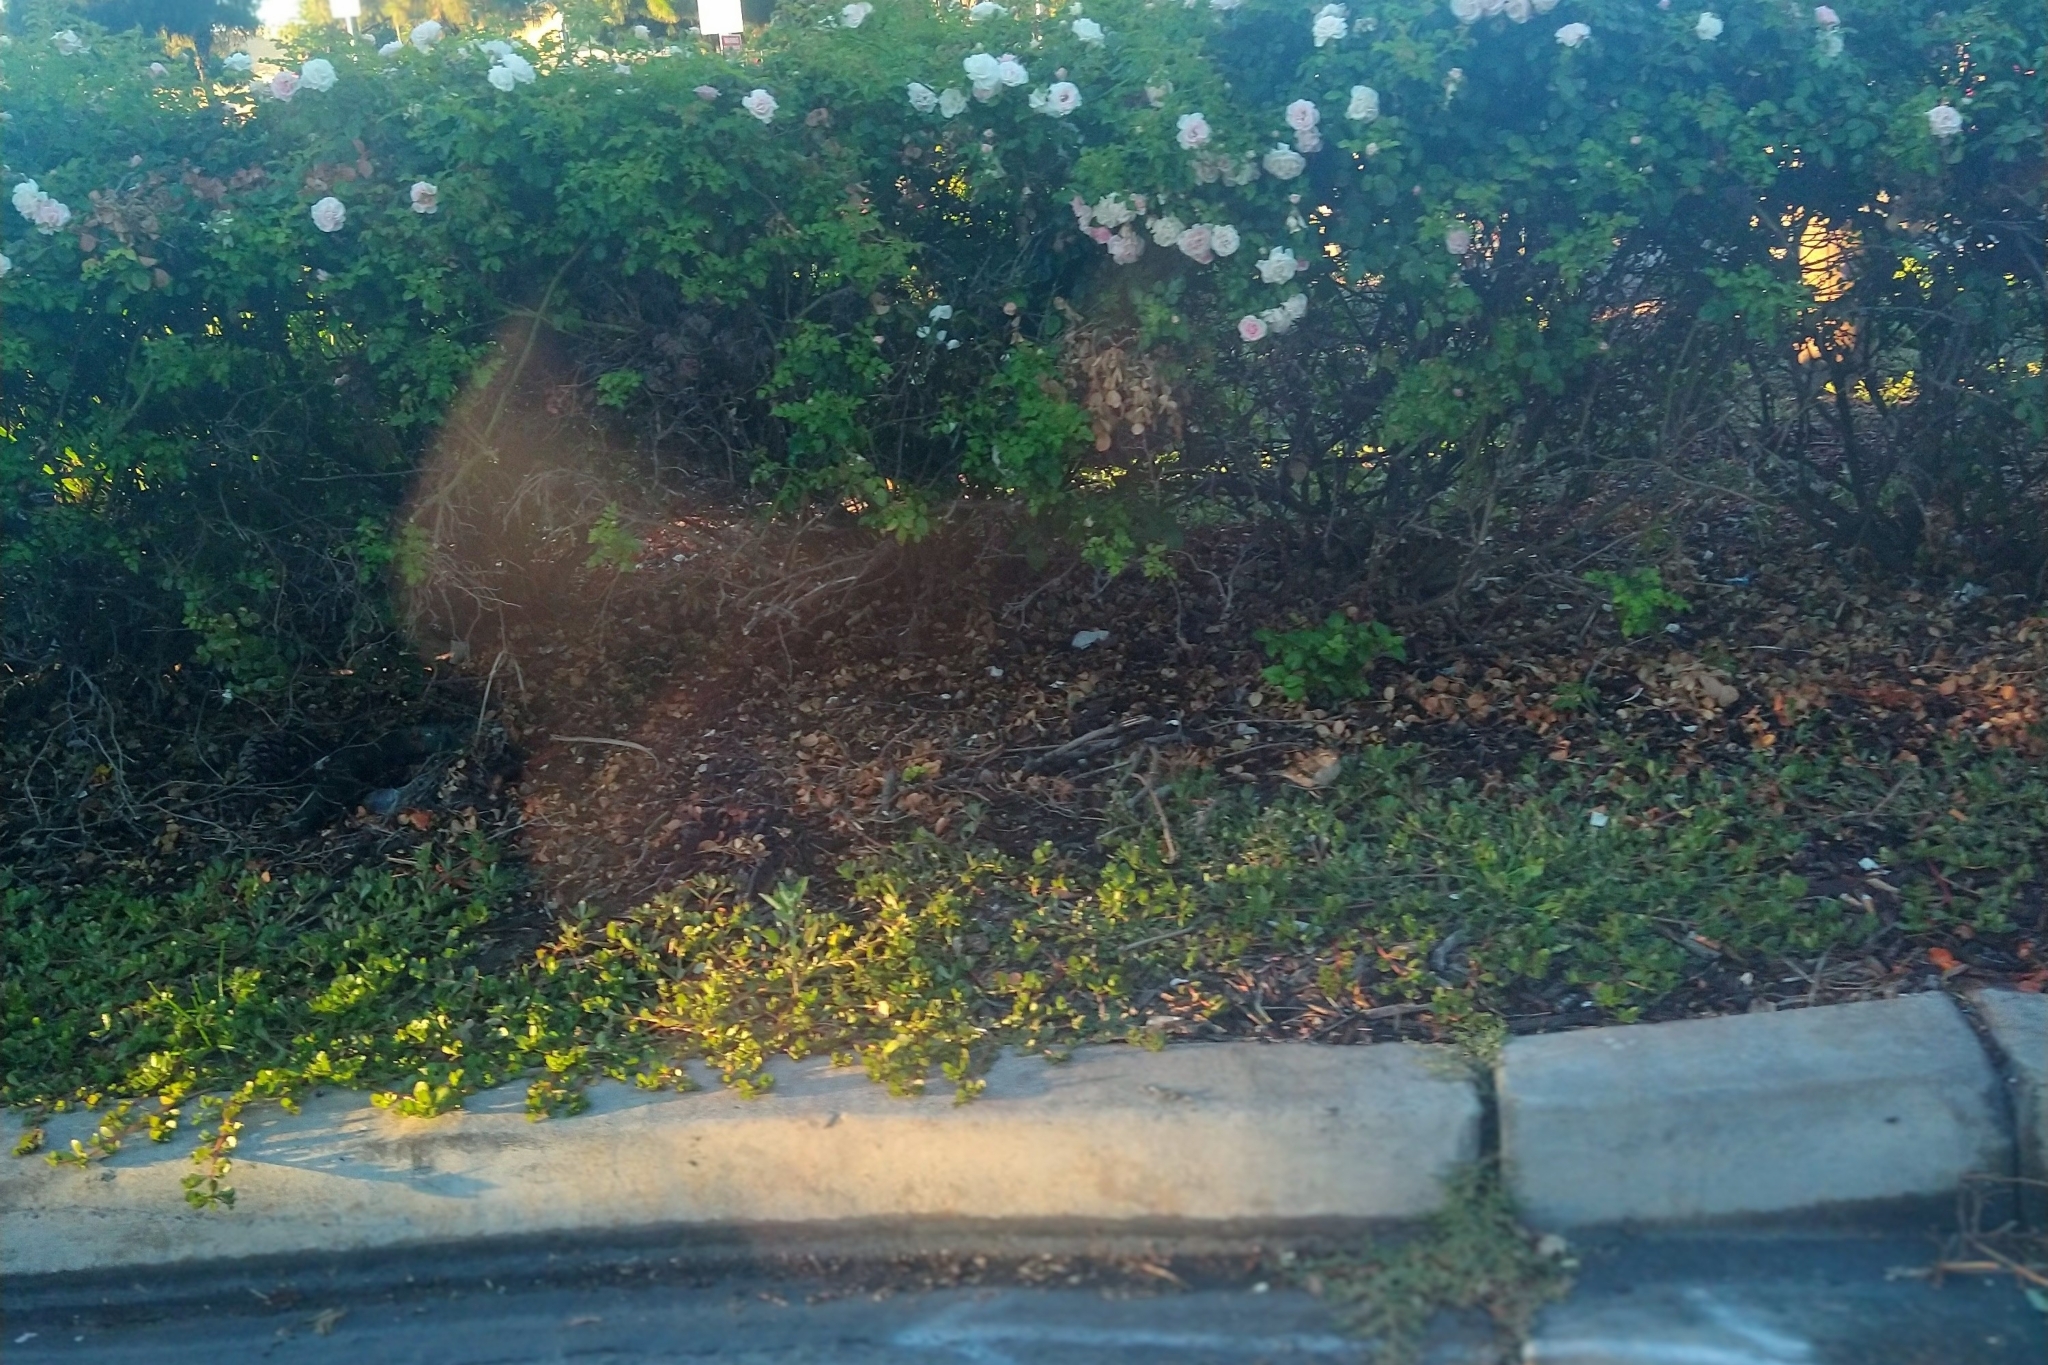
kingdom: Animalia
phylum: Chordata
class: Aves
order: Passeriformes
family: Passerellidae
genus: Spizella
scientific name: Spizella passerina
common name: Chipping sparrow
